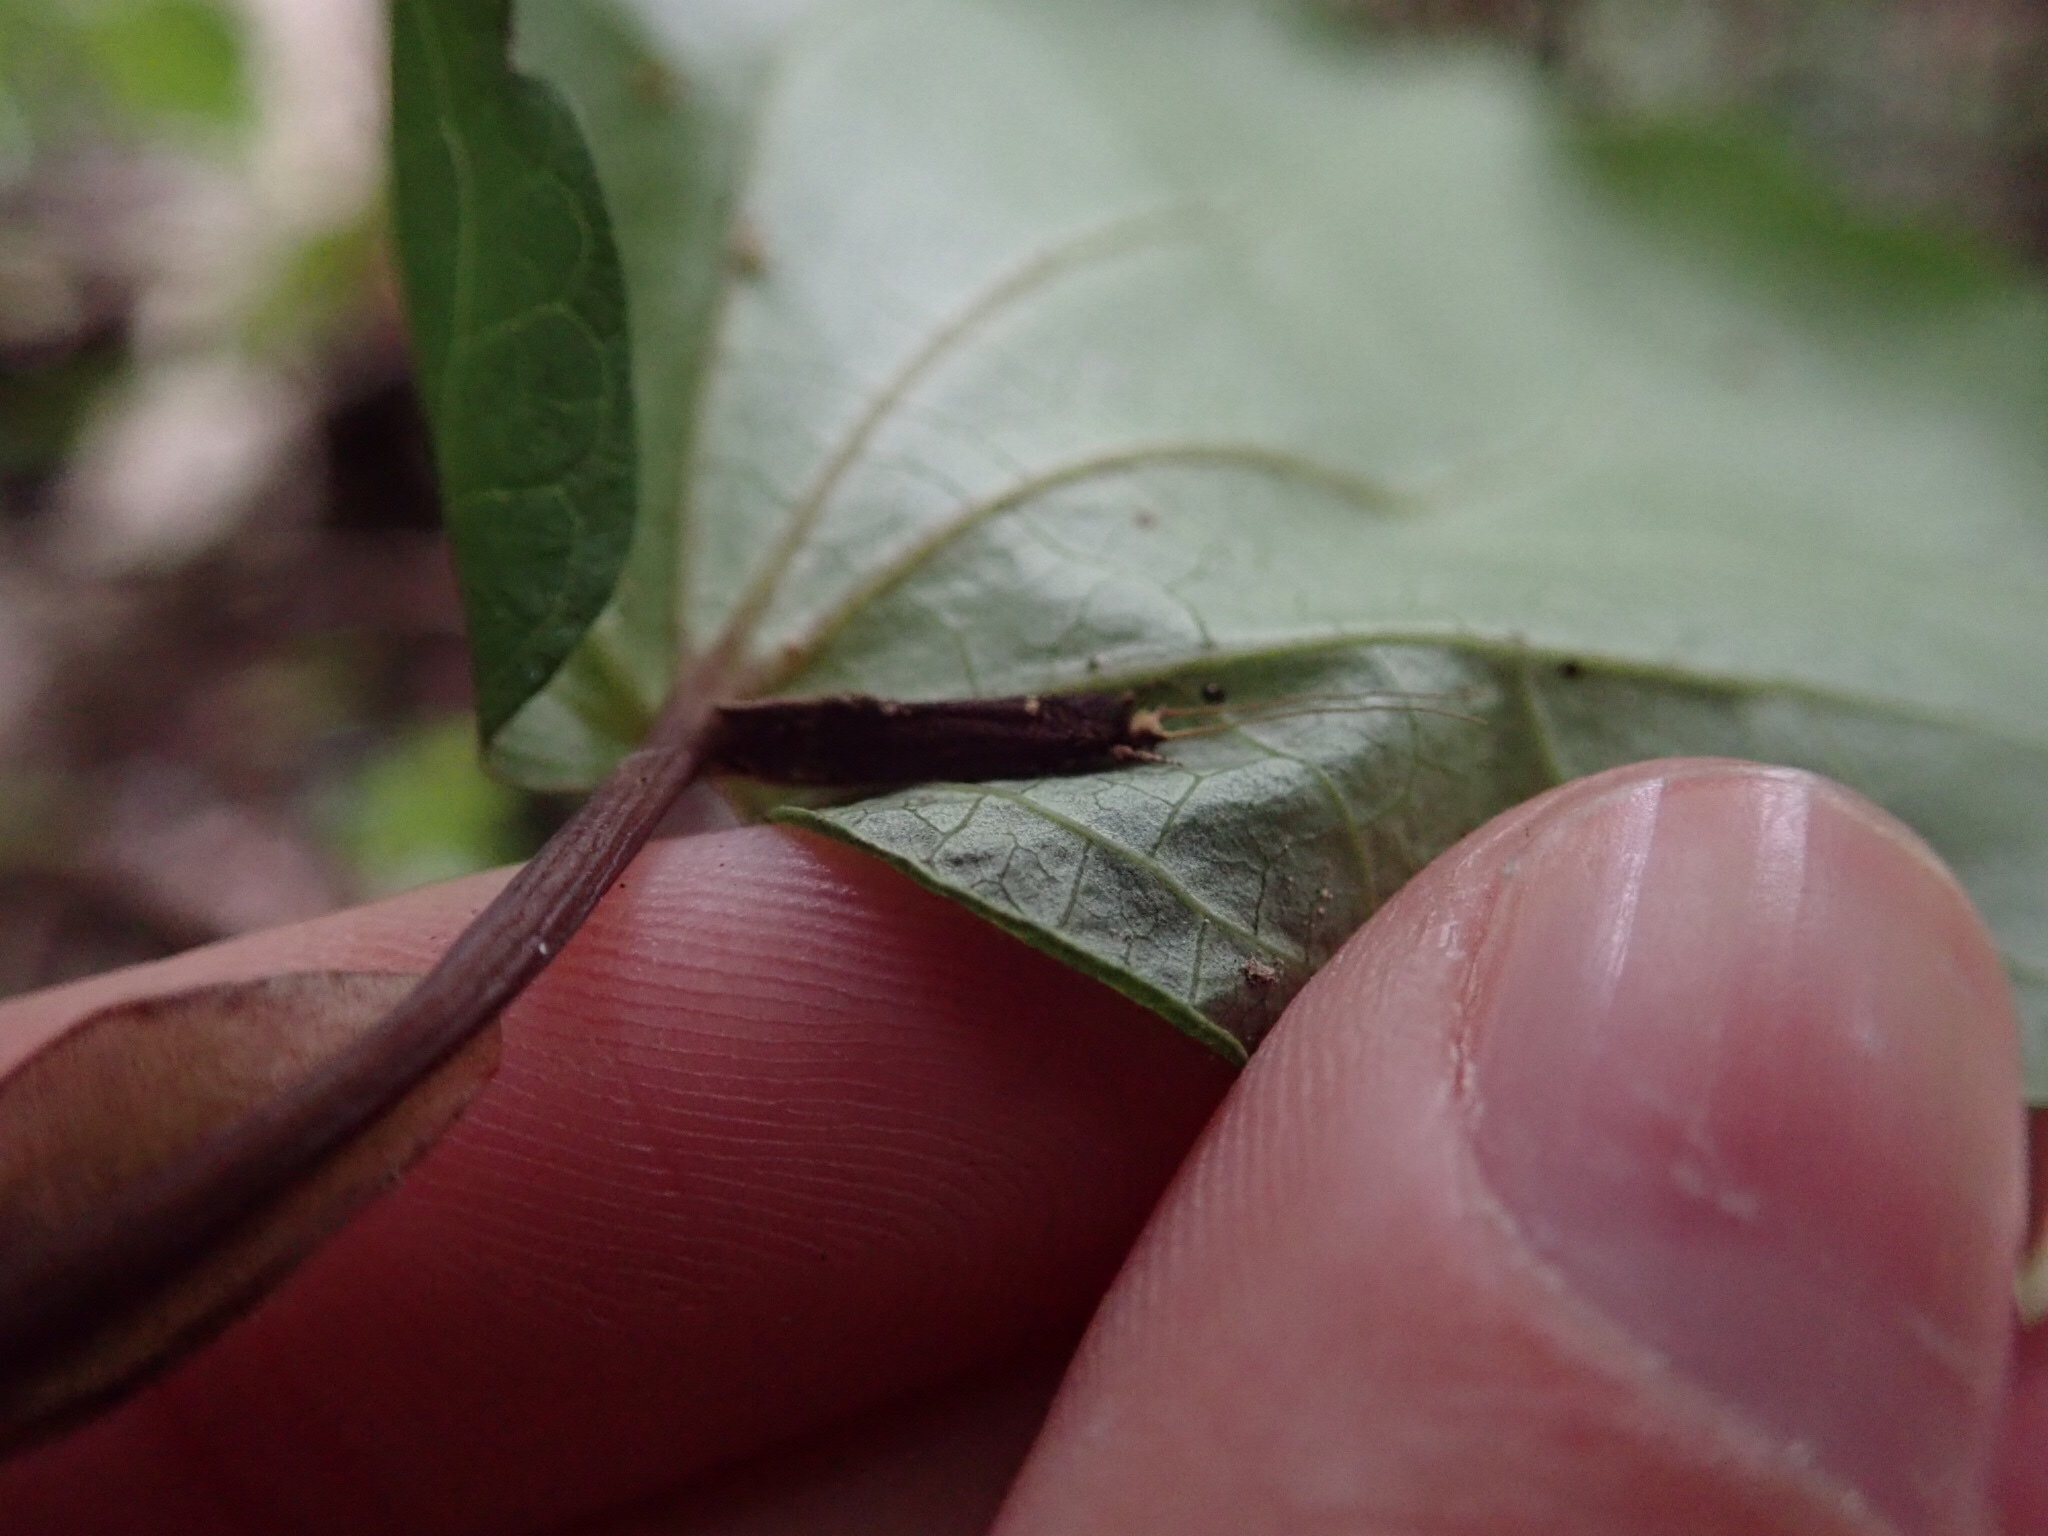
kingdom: Animalia
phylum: Arthropoda
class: Insecta
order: Lepidoptera
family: Tineidae
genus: Opogona
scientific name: Opogona omoscopa
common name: Moth
